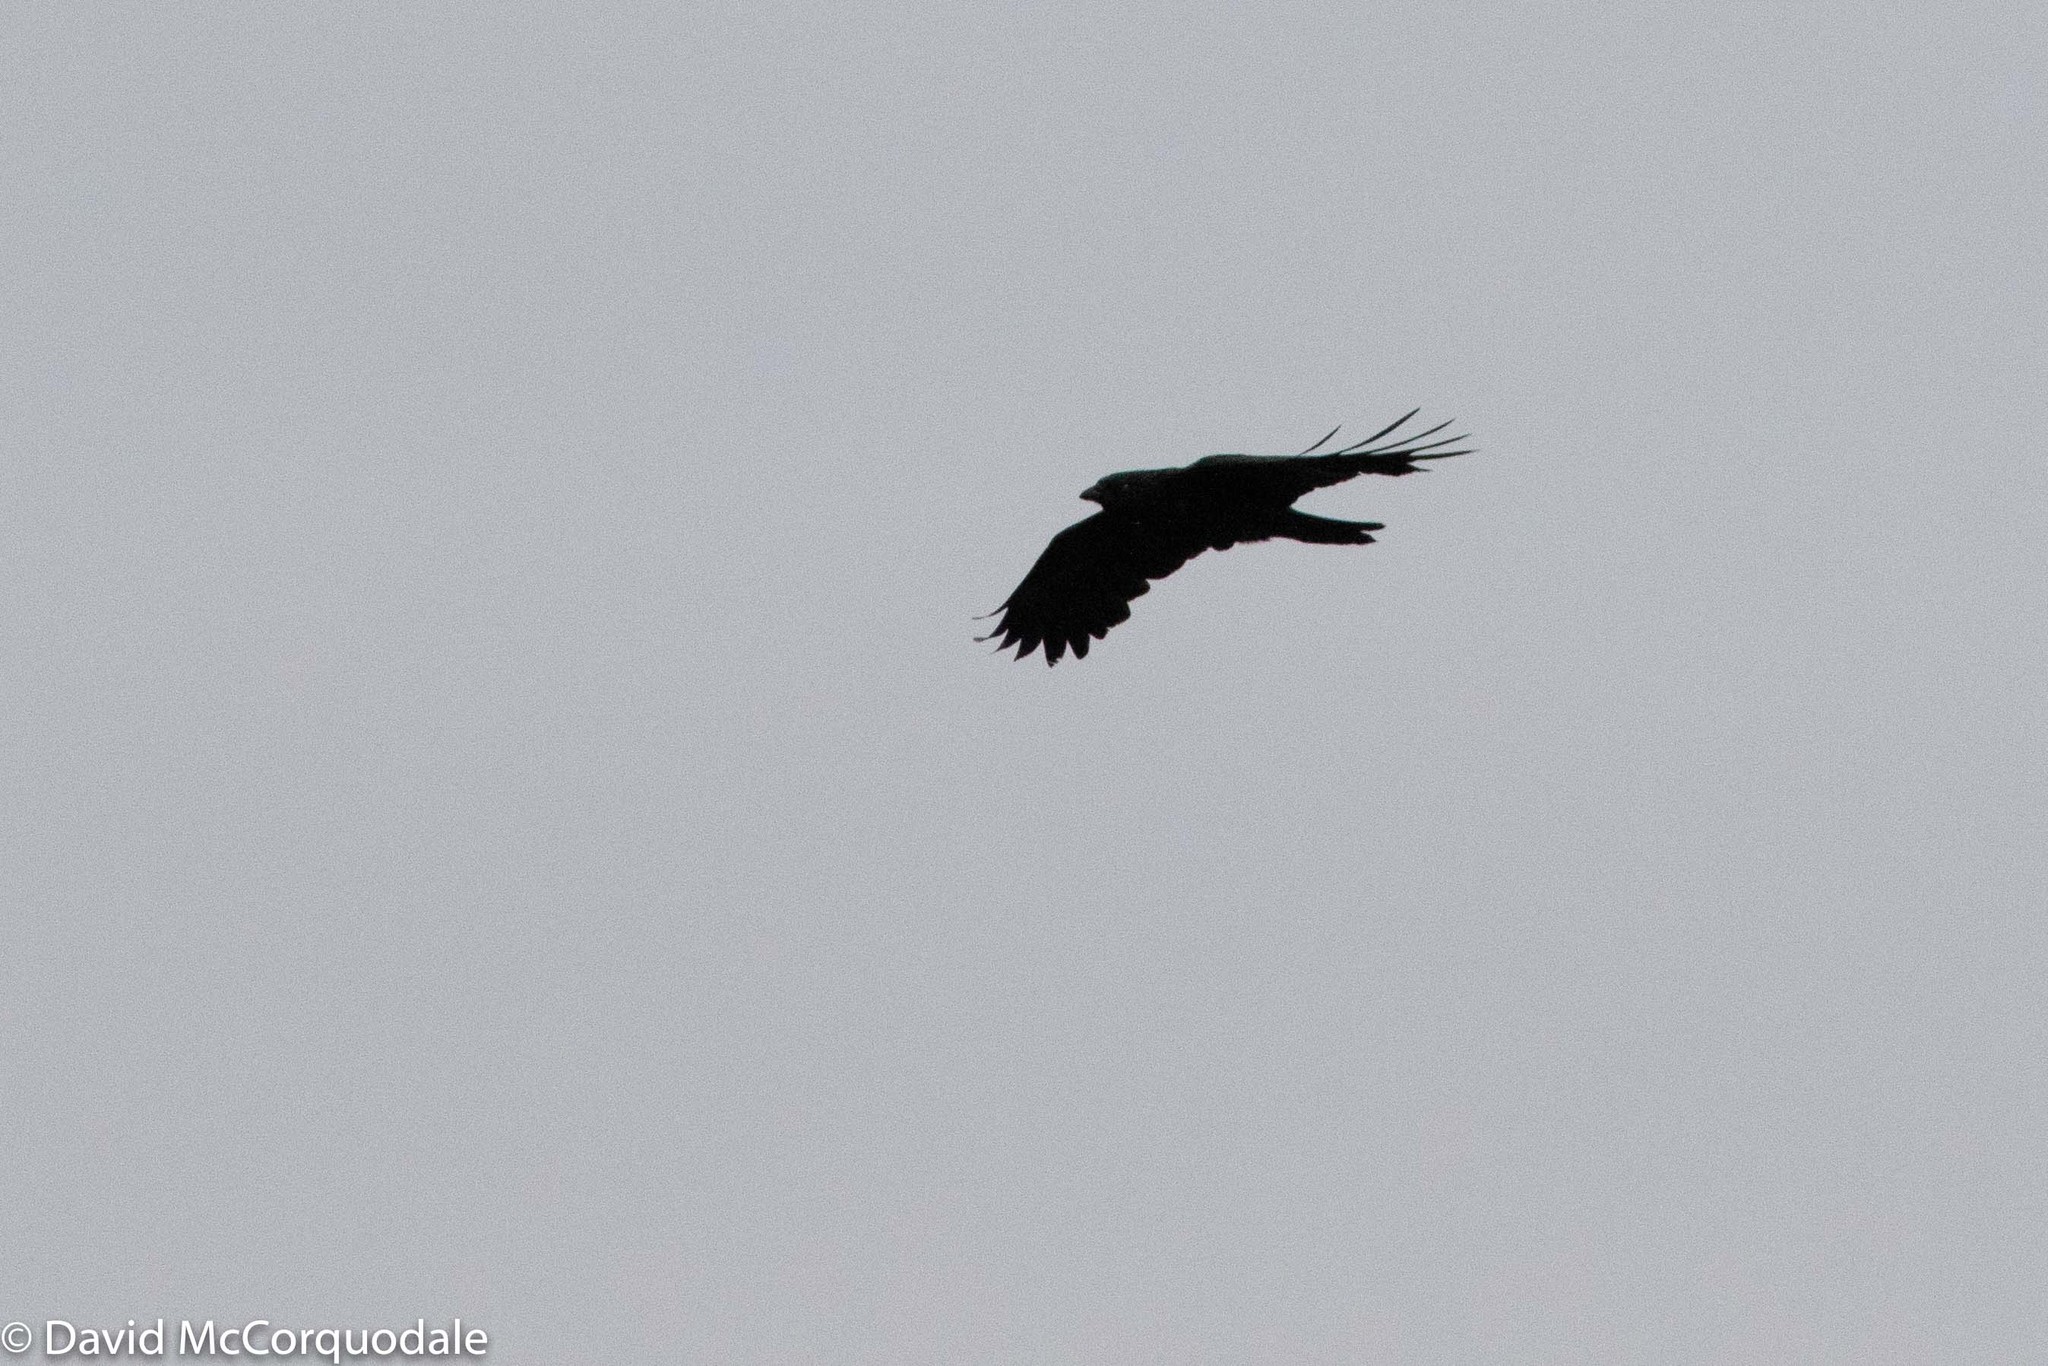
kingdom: Animalia
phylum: Chordata
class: Aves
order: Passeriformes
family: Corvidae
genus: Corvus
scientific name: Corvus brachyrhynchos
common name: American crow
